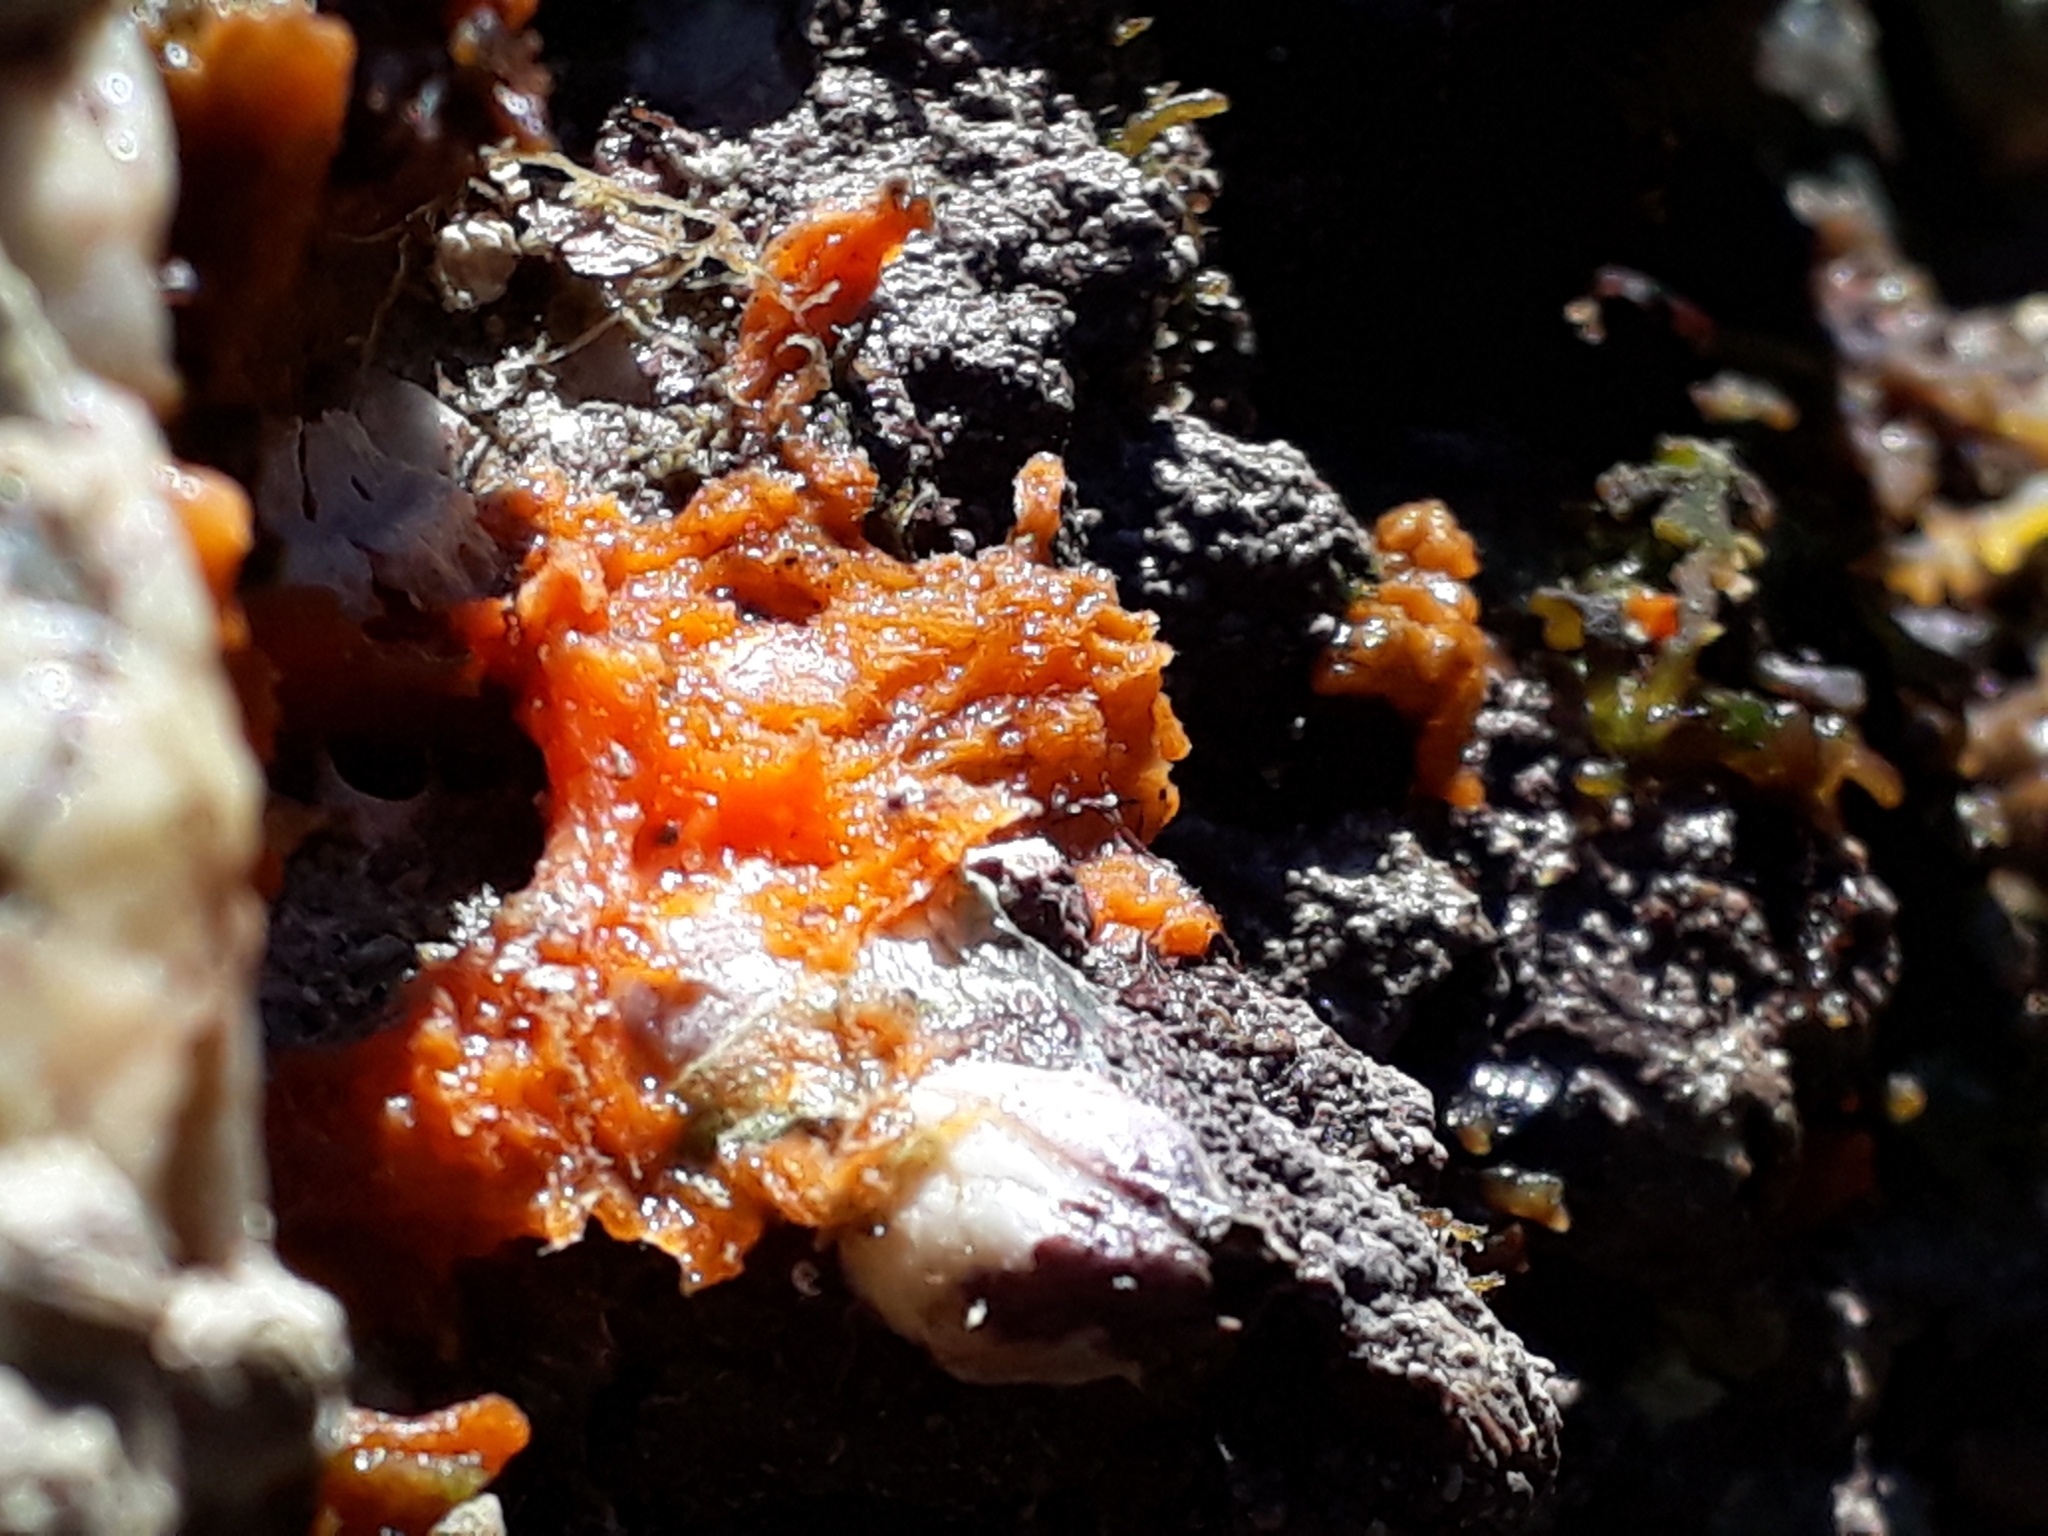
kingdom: Animalia
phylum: Porifera
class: Demospongiae
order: Suberitida
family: Halichondriidae
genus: Hymeniacidon
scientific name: Hymeniacidon perlevis
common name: Crumb-of-bread sponge
